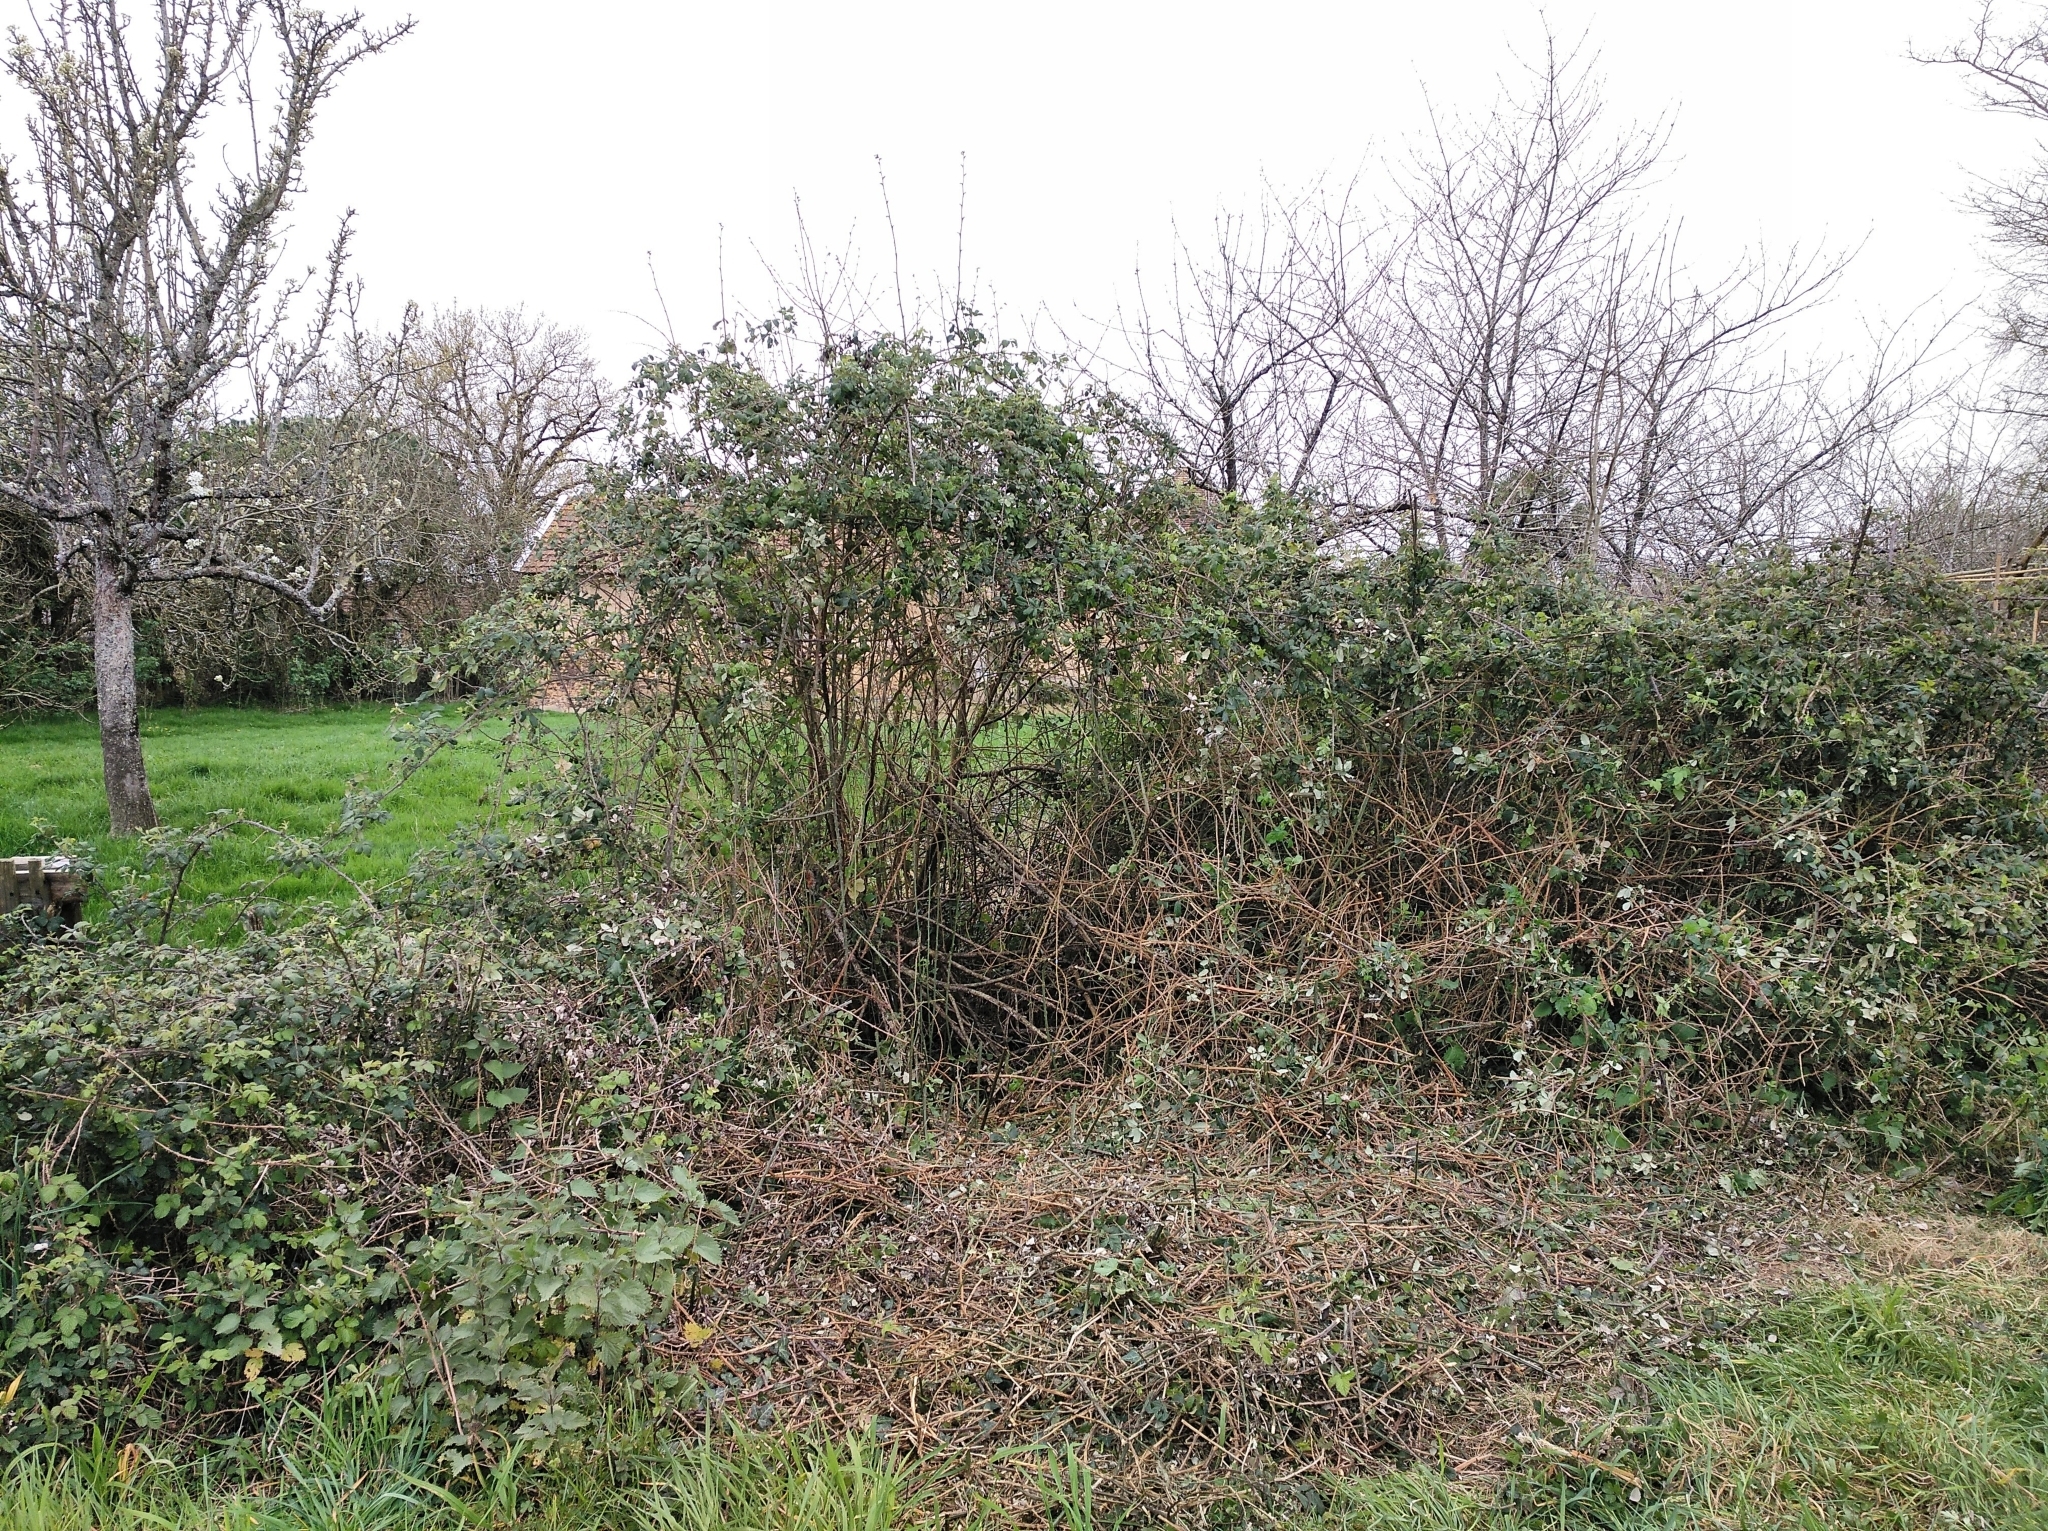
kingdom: Animalia
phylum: Chordata
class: Aves
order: Passeriformes
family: Turdidae
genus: Turdus
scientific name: Turdus merula
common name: Common blackbird
